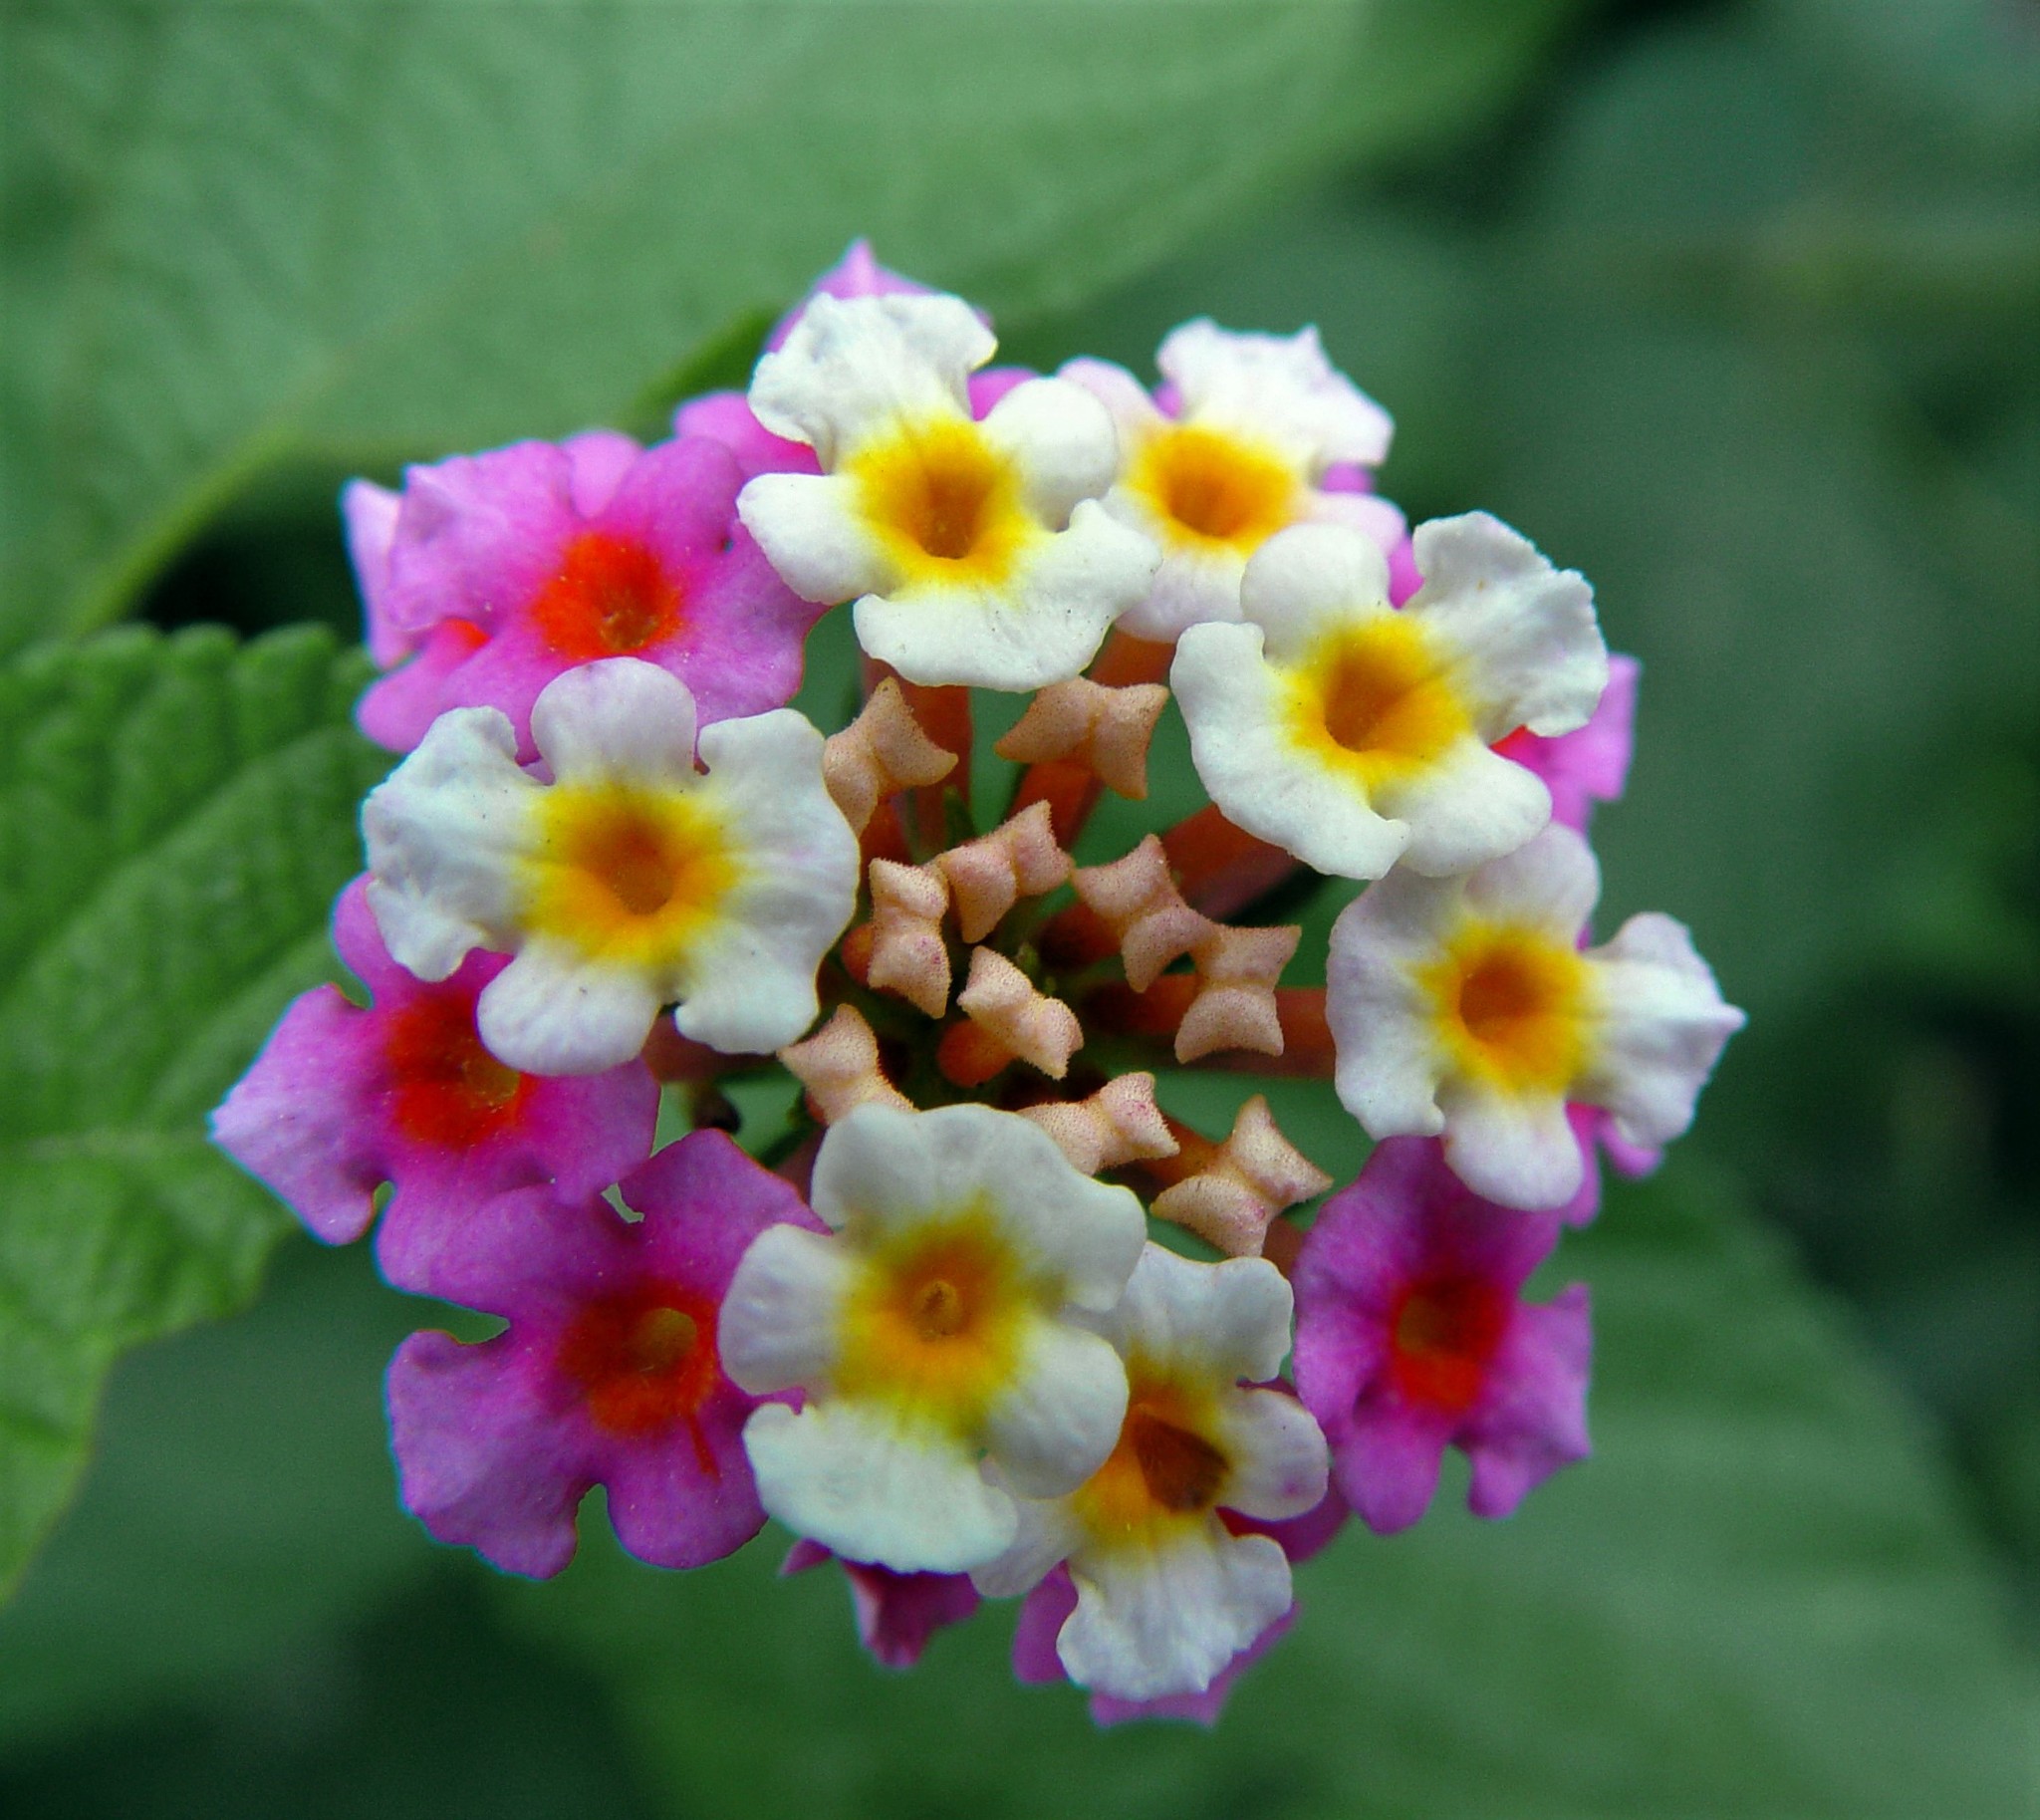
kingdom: Plantae
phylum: Tracheophyta
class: Magnoliopsida
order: Lamiales
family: Verbenaceae
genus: Lantana
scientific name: Lantana camara
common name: Lantana
